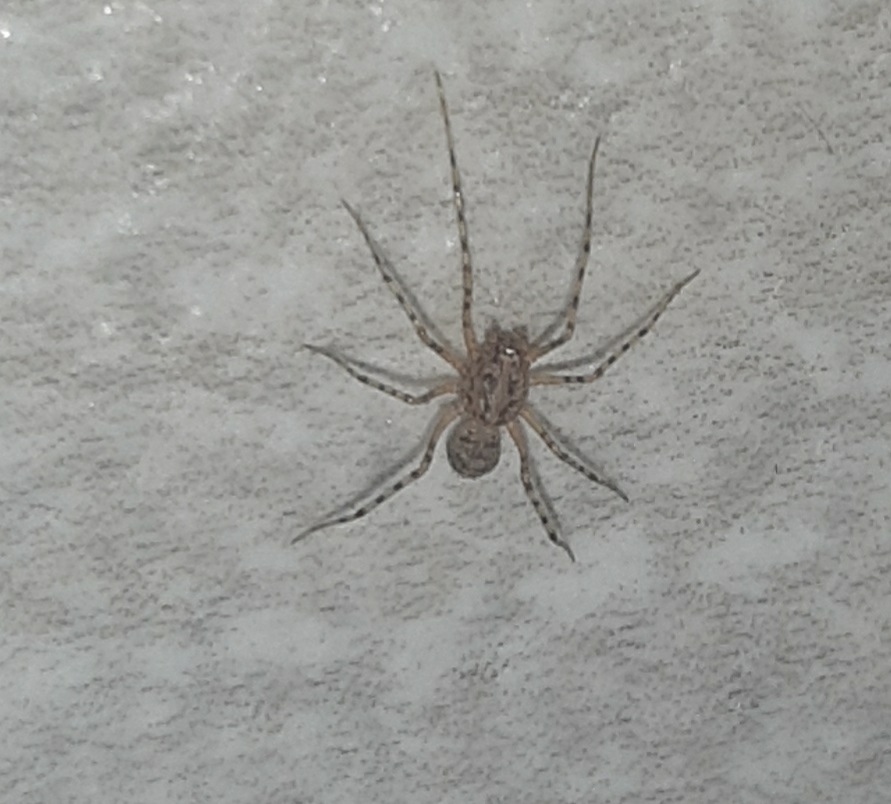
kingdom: Animalia
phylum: Arthropoda
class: Arachnida
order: Araneae
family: Scytodidae
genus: Scytodes
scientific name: Scytodes thoracica
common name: Spitting spider
